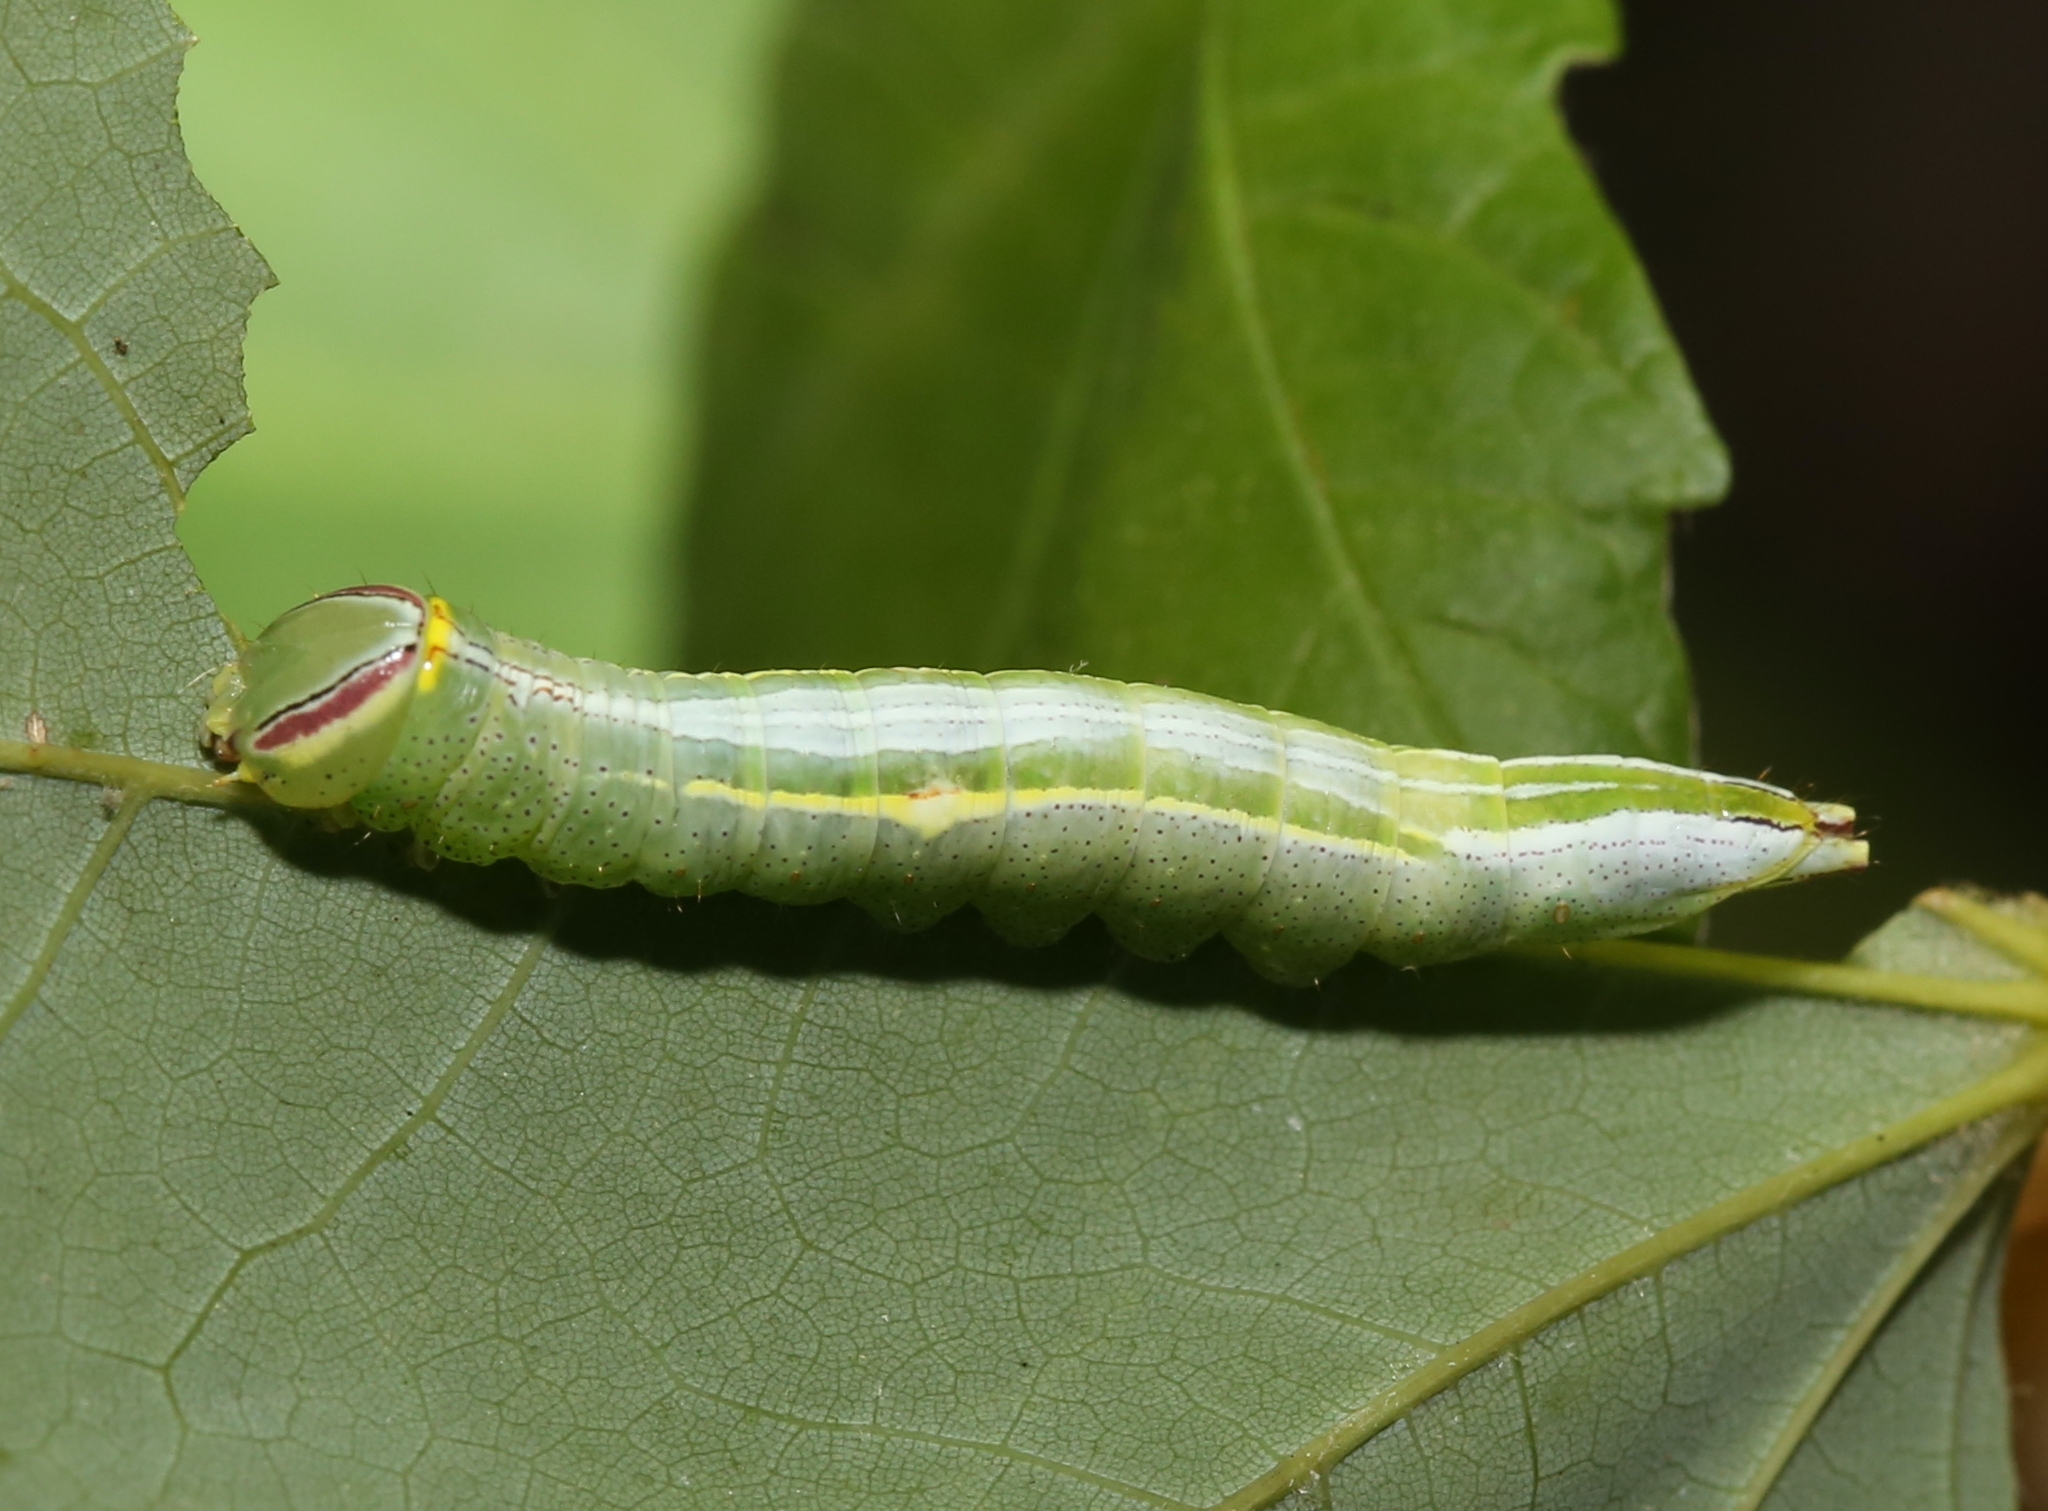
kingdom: Animalia
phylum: Arthropoda
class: Insecta
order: Lepidoptera
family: Notodontidae
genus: Disphragis
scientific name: Disphragis Cecrita guttivitta
